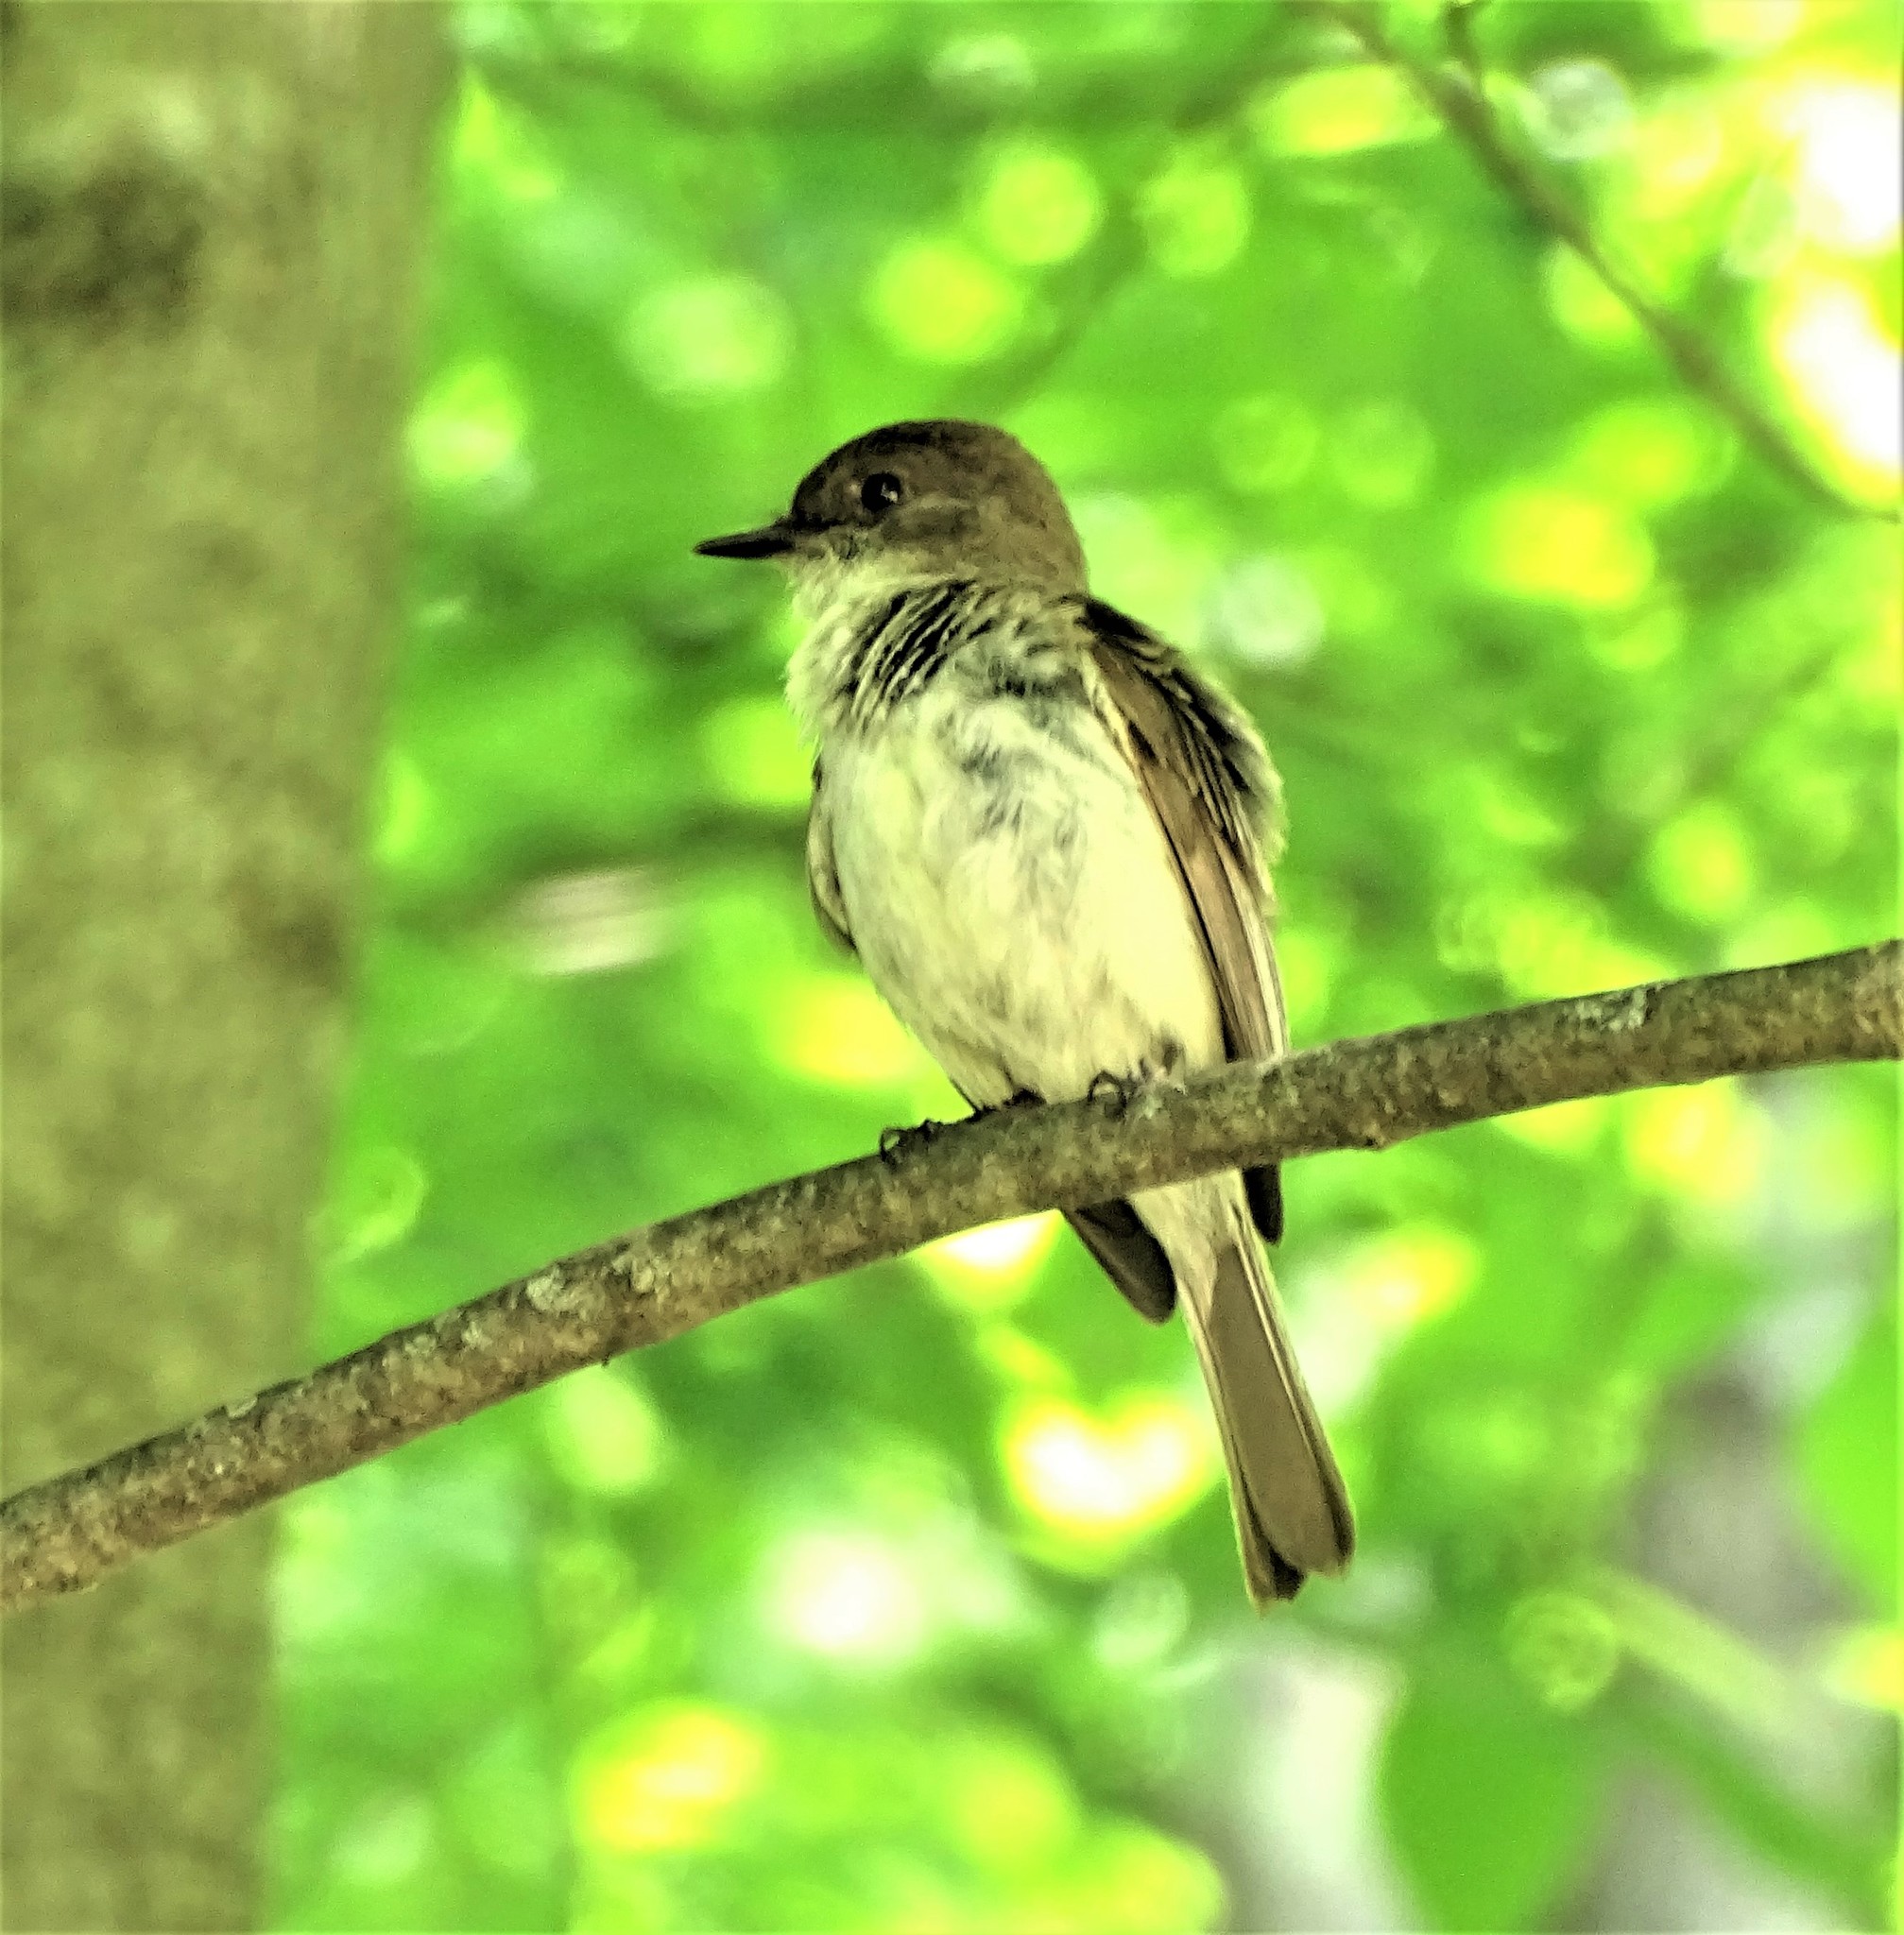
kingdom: Animalia
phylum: Chordata
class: Aves
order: Passeriformes
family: Tyrannidae
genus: Sayornis
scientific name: Sayornis phoebe
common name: Eastern phoebe
